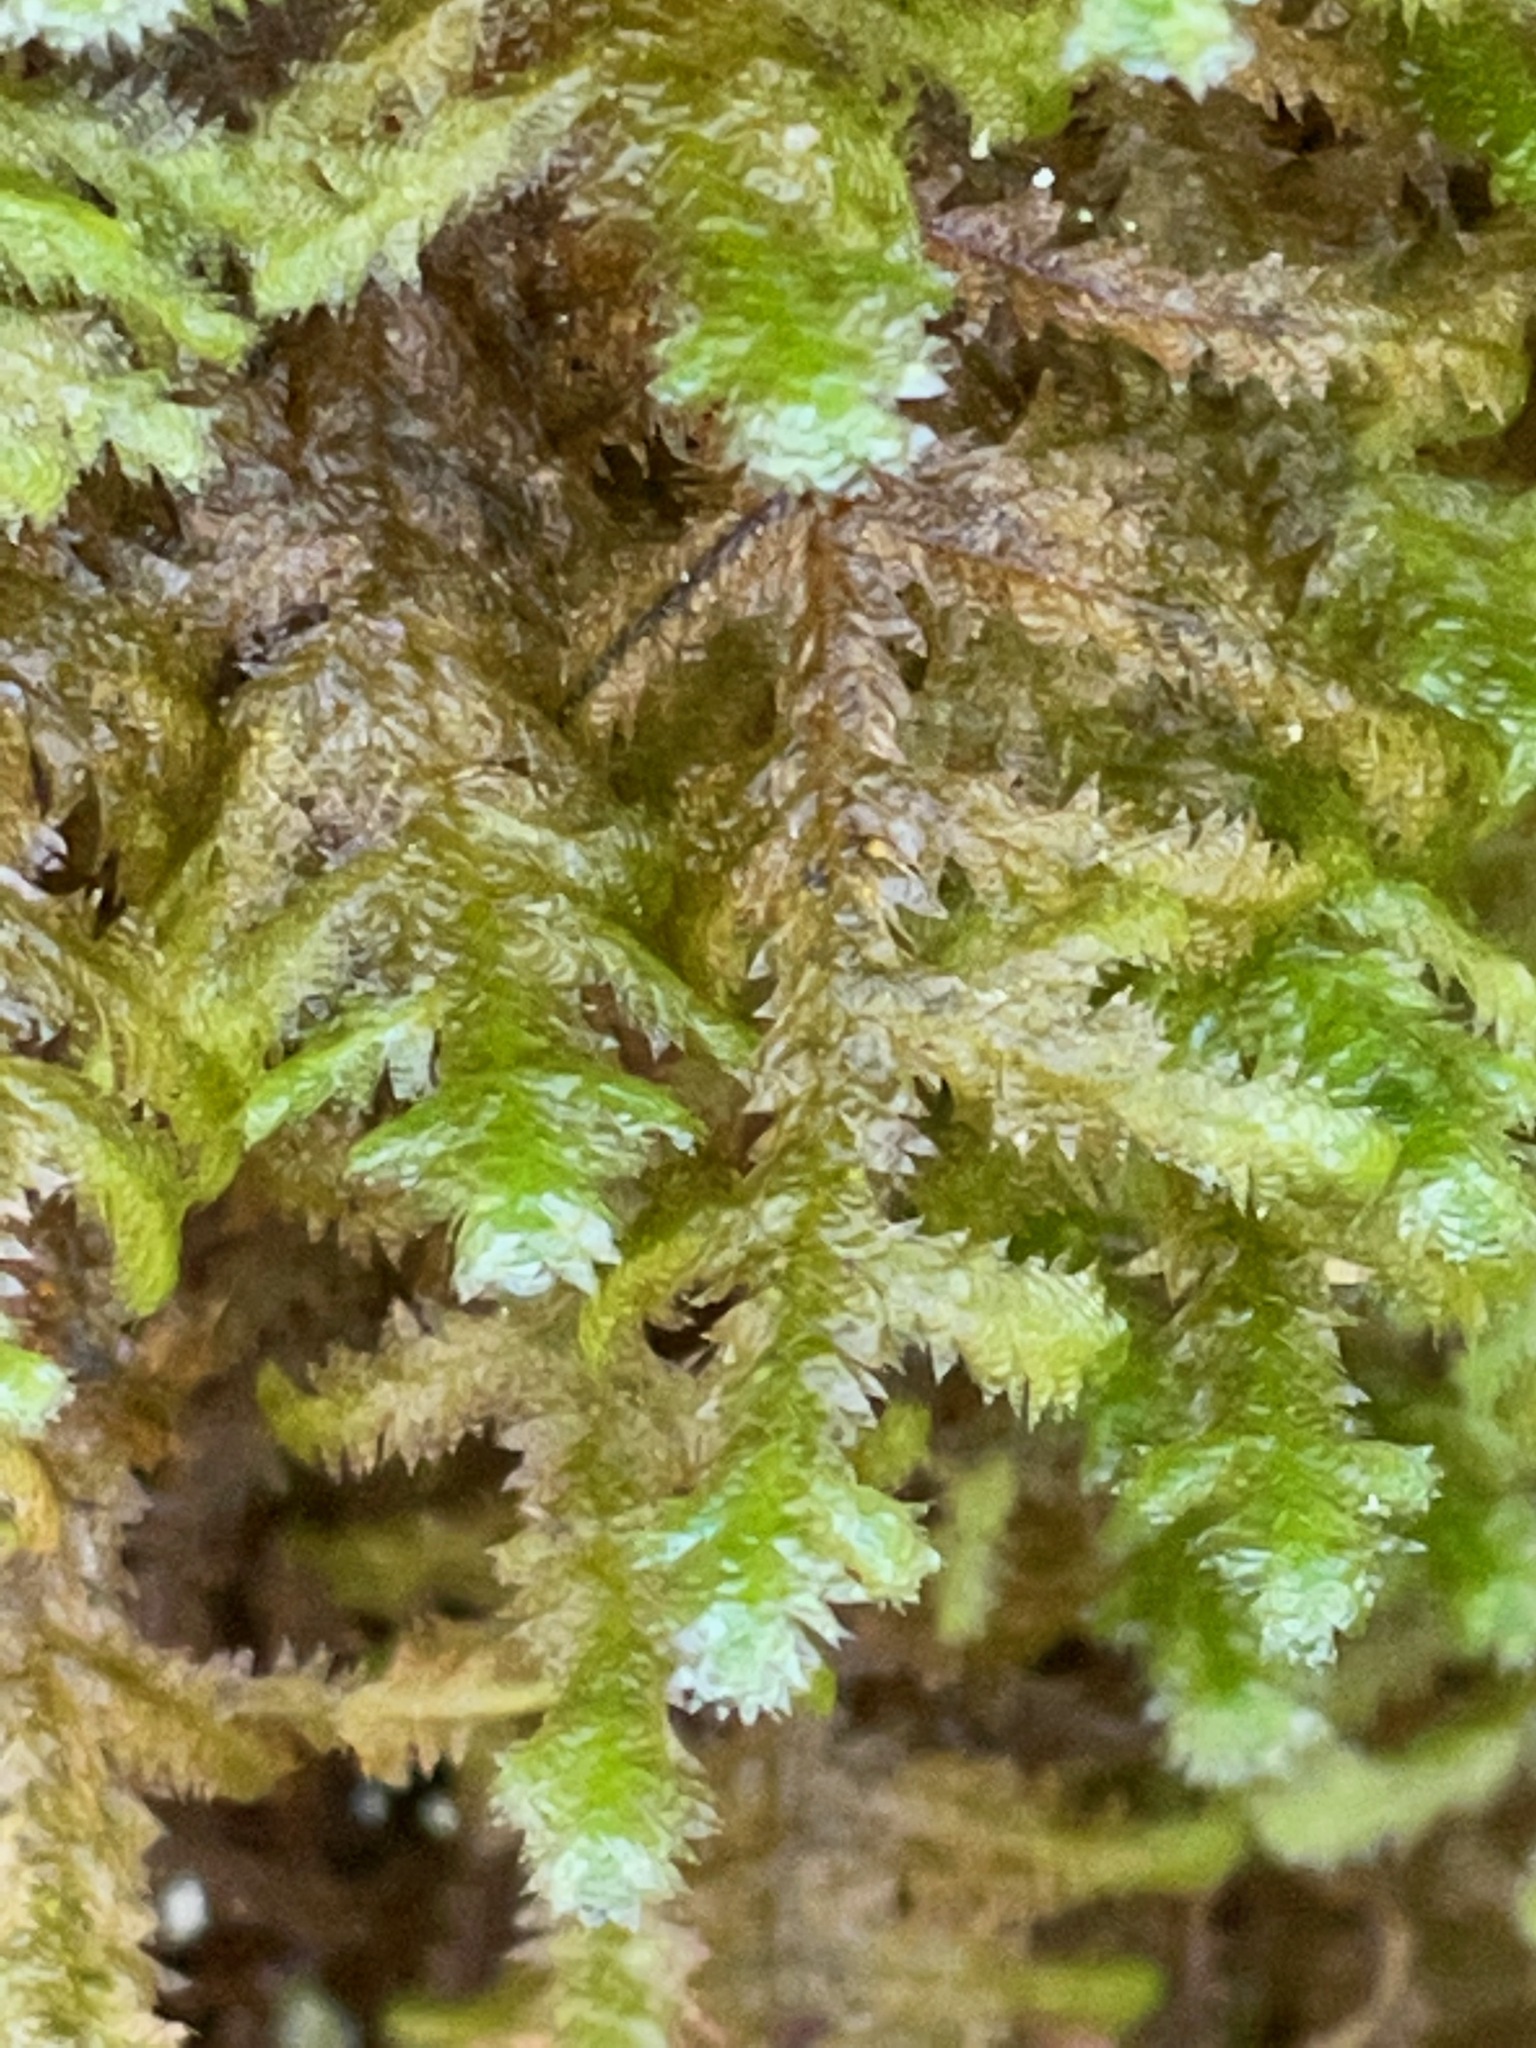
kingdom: Plantae
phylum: Bryophyta
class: Bryopsida
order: Hypnales
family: Neckeraceae
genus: Neckera
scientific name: Neckera pennata
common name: Feathery neckera
